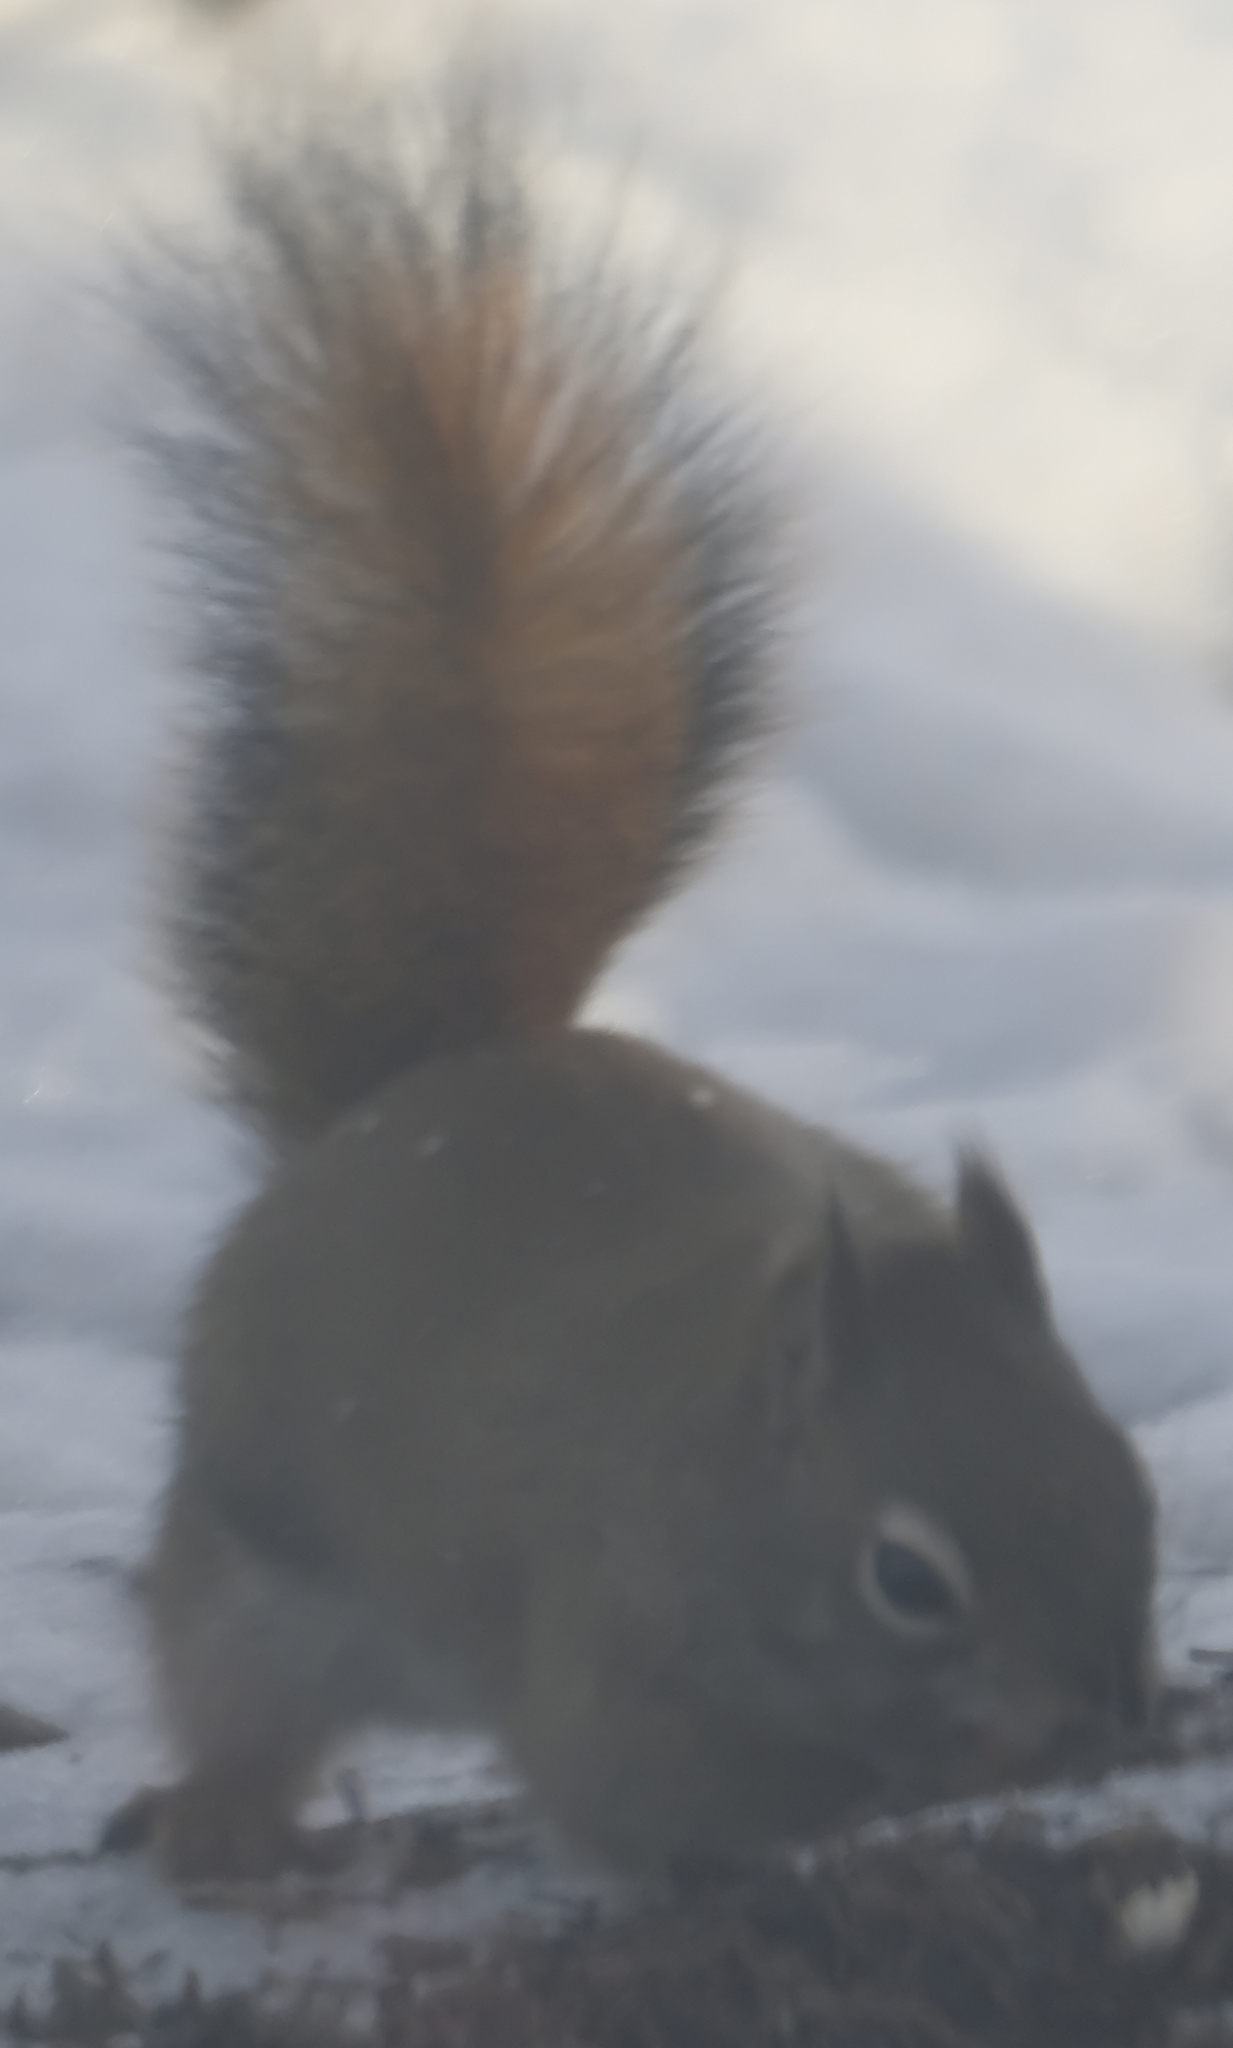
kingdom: Animalia
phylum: Chordata
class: Mammalia
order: Rodentia
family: Sciuridae
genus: Tamiasciurus
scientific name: Tamiasciurus hudsonicus
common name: Red squirrel
